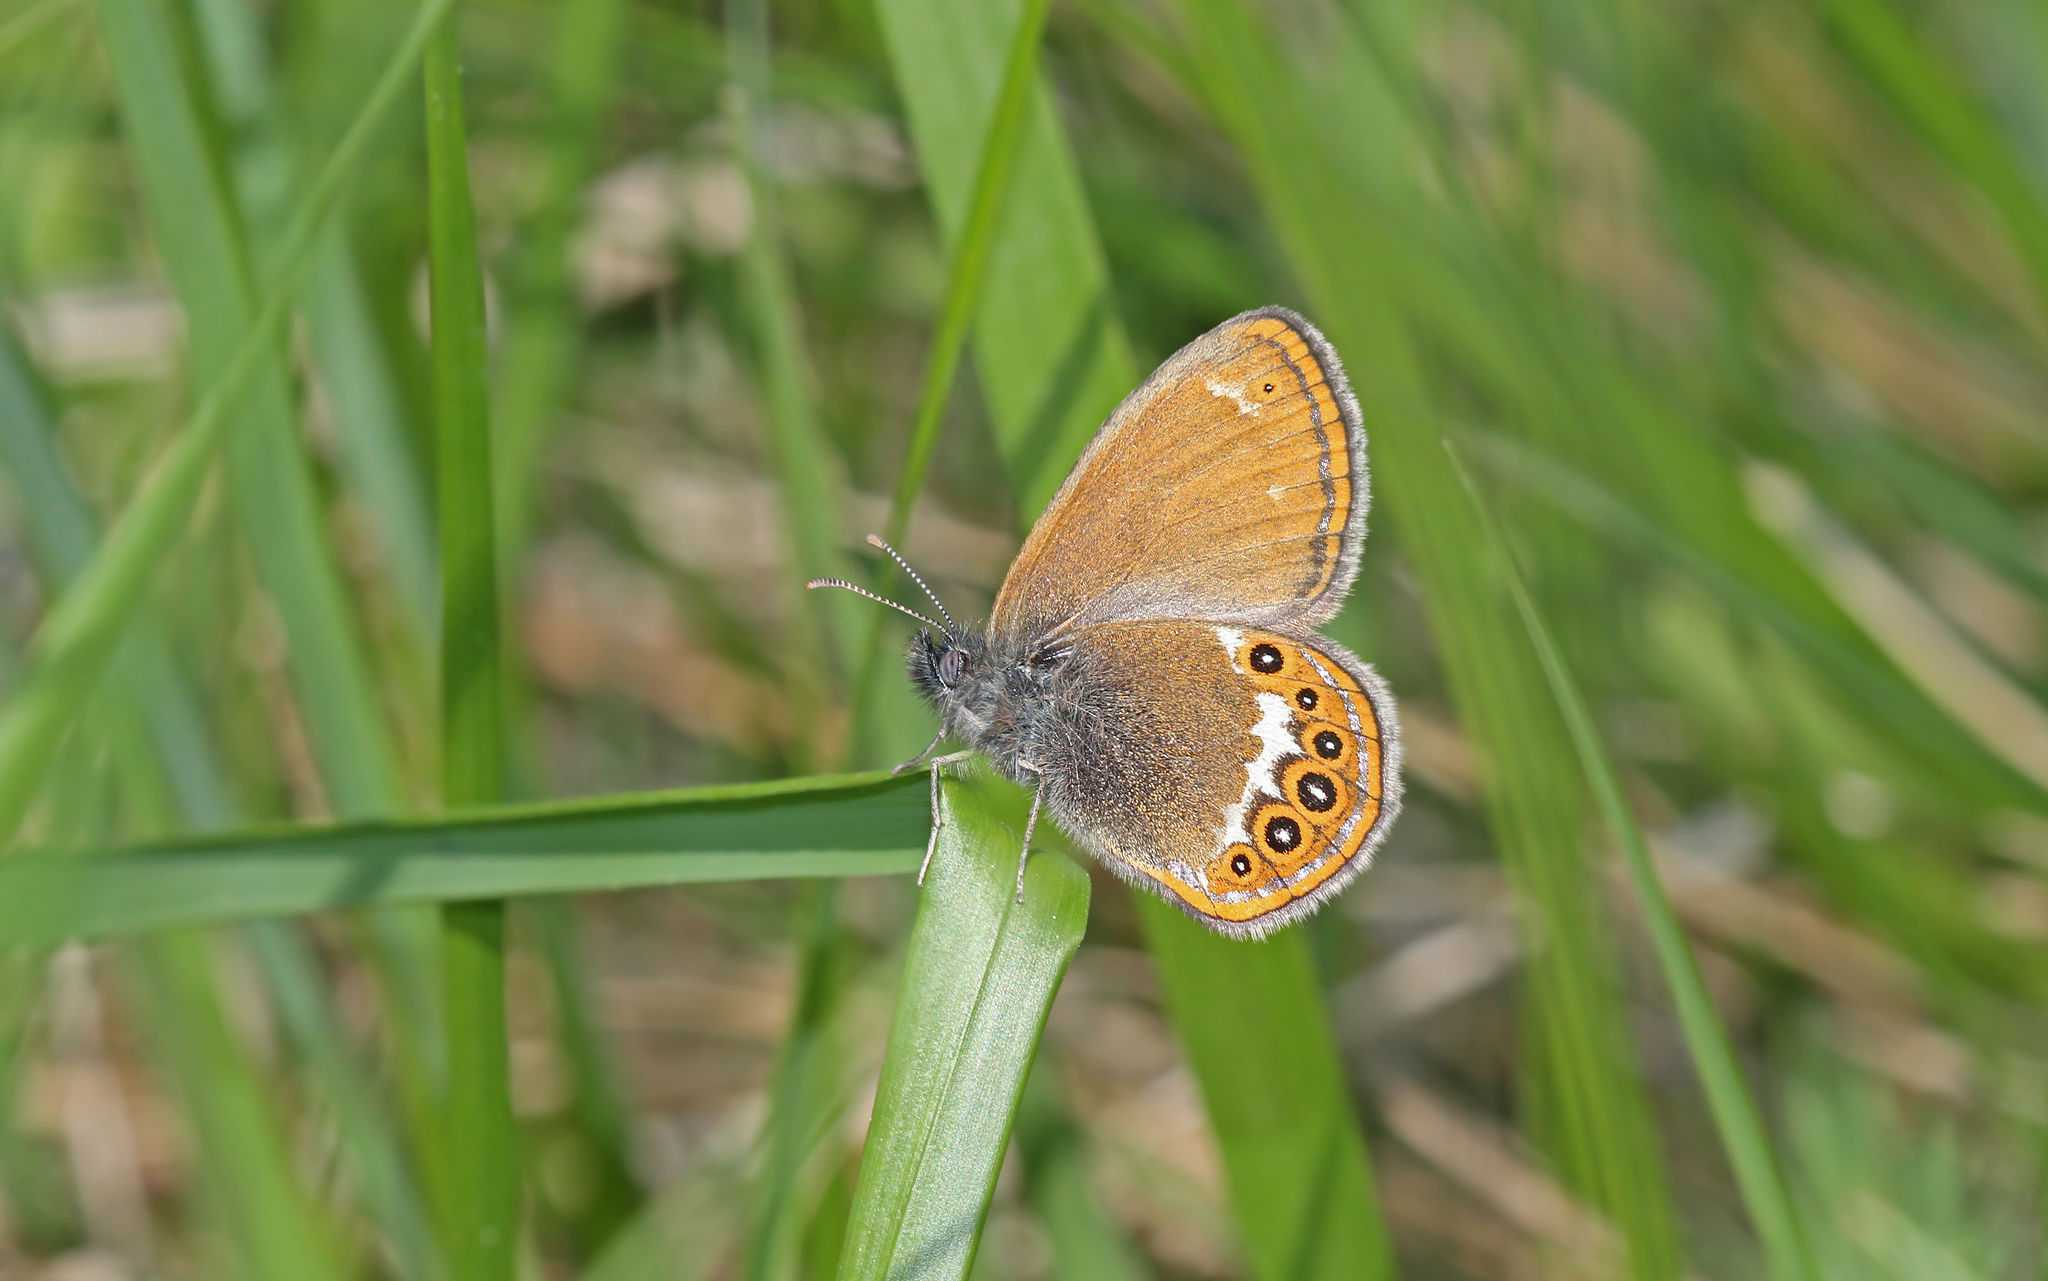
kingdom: Animalia
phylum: Arthropoda
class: Insecta
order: Lepidoptera
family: Nymphalidae
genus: Coenonympha
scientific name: Coenonympha hero
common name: Scarce heath
